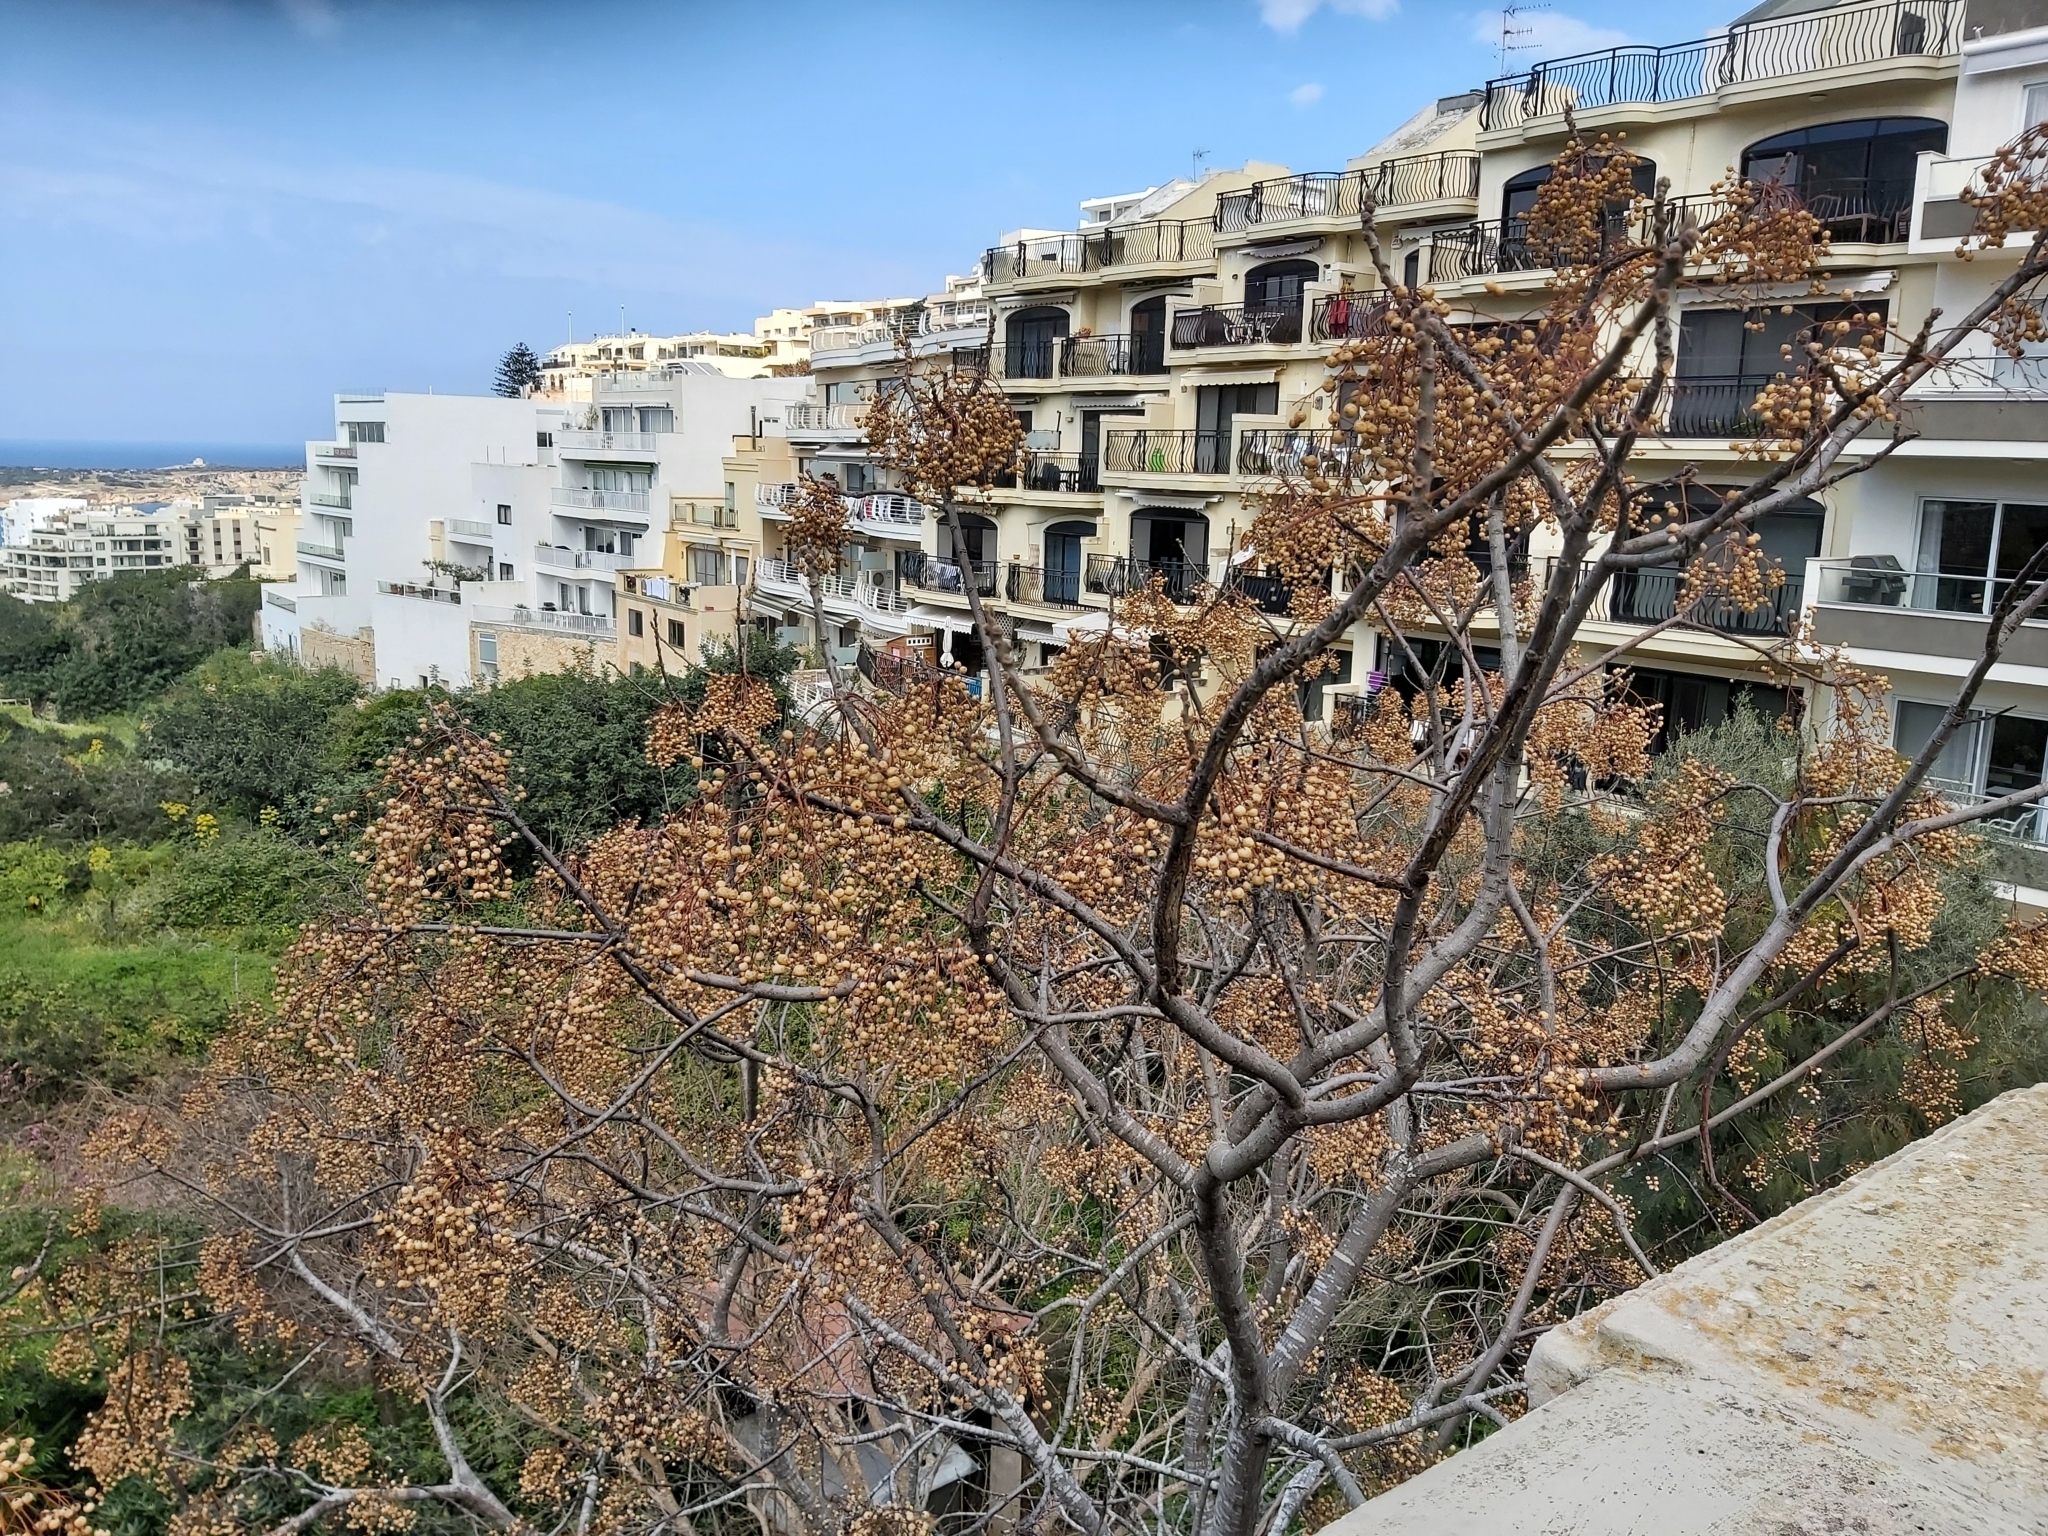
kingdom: Plantae
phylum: Tracheophyta
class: Magnoliopsida
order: Sapindales
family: Meliaceae
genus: Melia
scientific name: Melia azedarach
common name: Chinaberrytree
